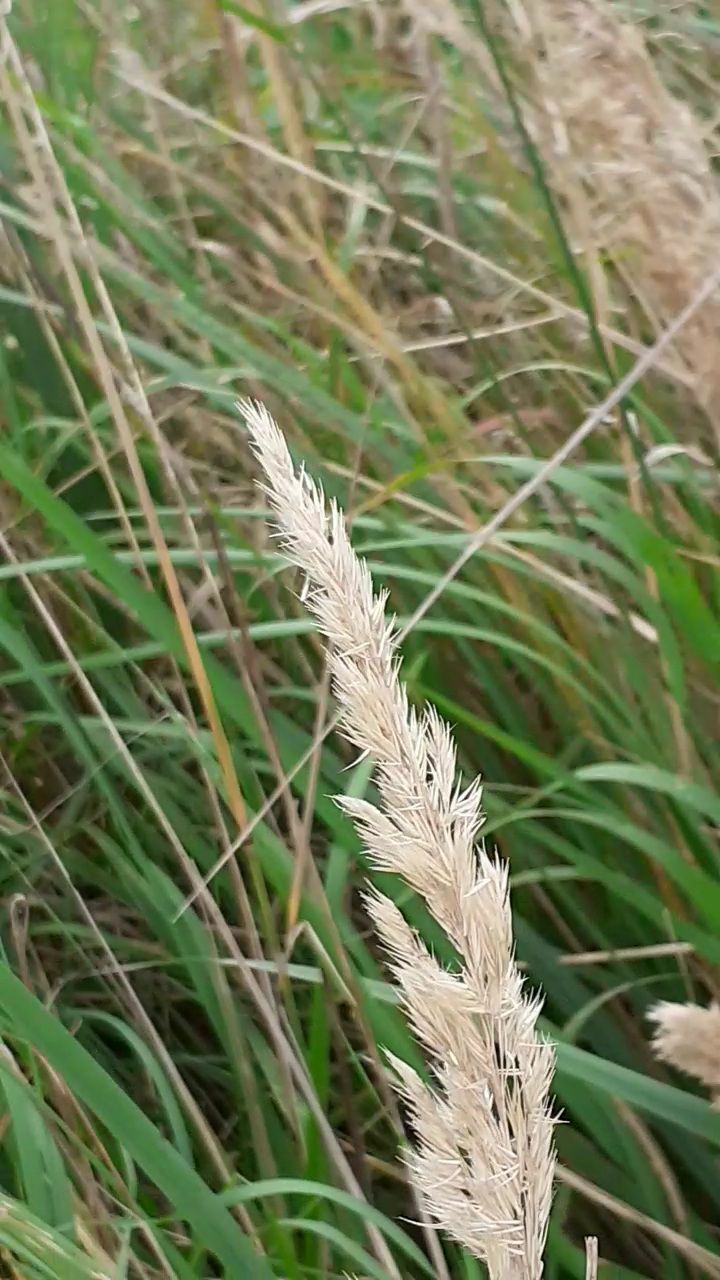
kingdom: Plantae
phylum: Tracheophyta
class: Liliopsida
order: Poales
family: Poaceae
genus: Calamagrostis
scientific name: Calamagrostis epigejos
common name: Wood small-reed
